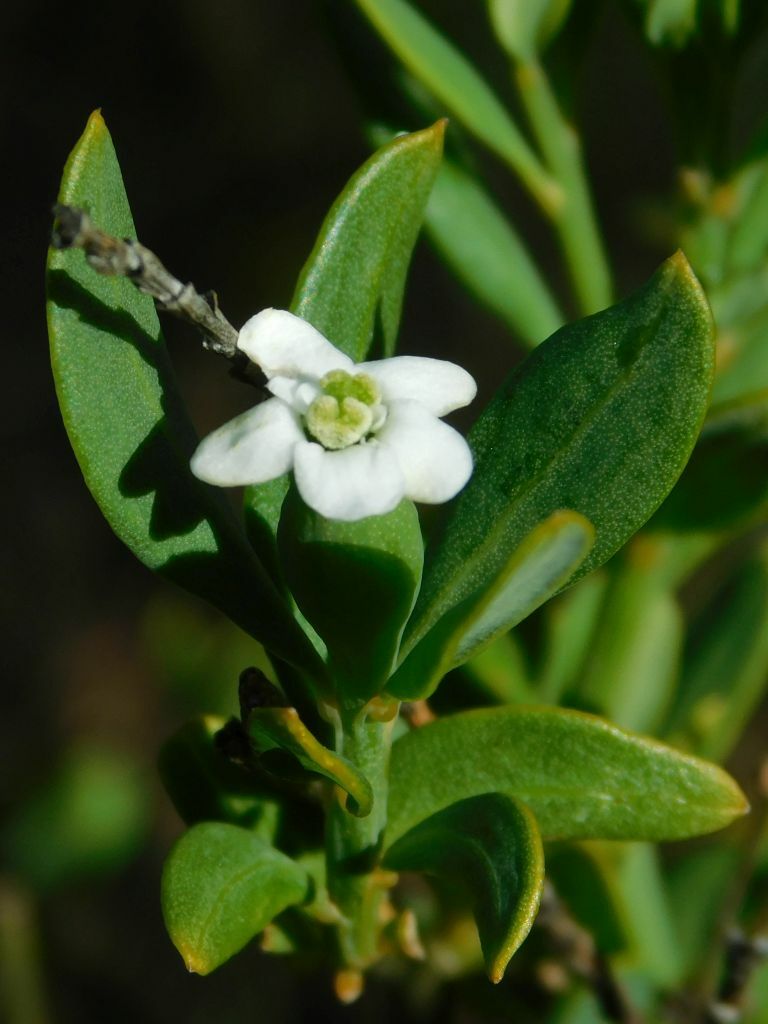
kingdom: Plantae
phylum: Tracheophyta
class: Magnoliopsida
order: Solanales
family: Montiniaceae
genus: Montinia
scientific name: Montinia caryophyllacea
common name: Wild clove-bush
